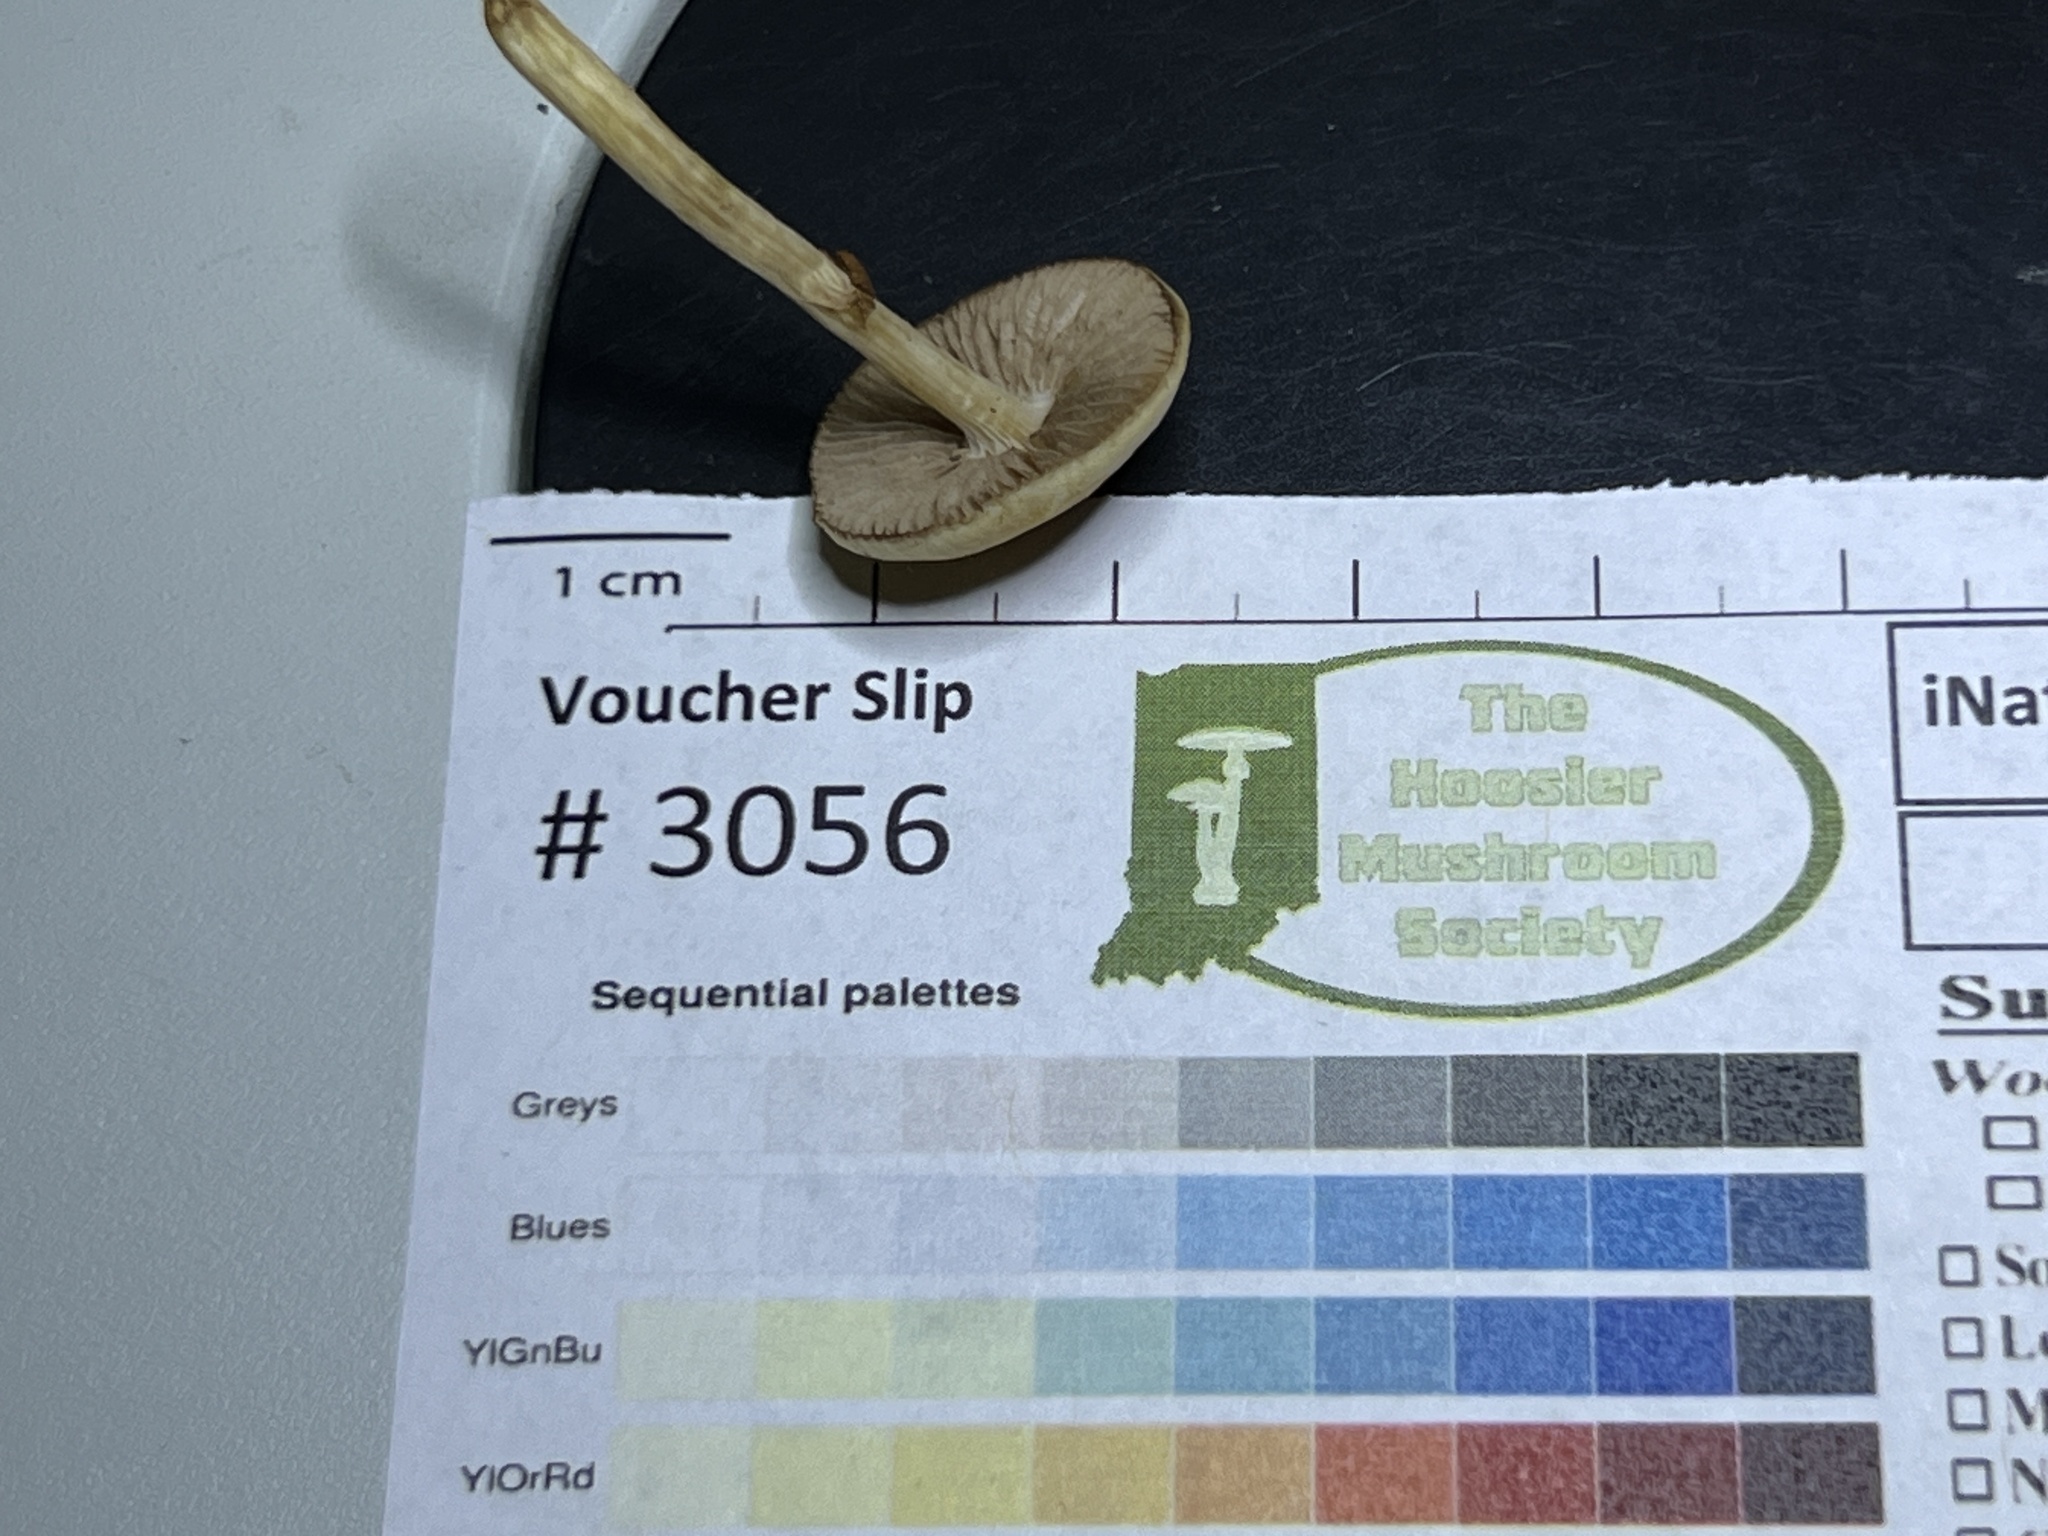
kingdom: Fungi
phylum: Basidiomycota
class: Agaricomycetes
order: Agaricales
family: Strophariaceae
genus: Agrocybe
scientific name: Agrocybe acericola
